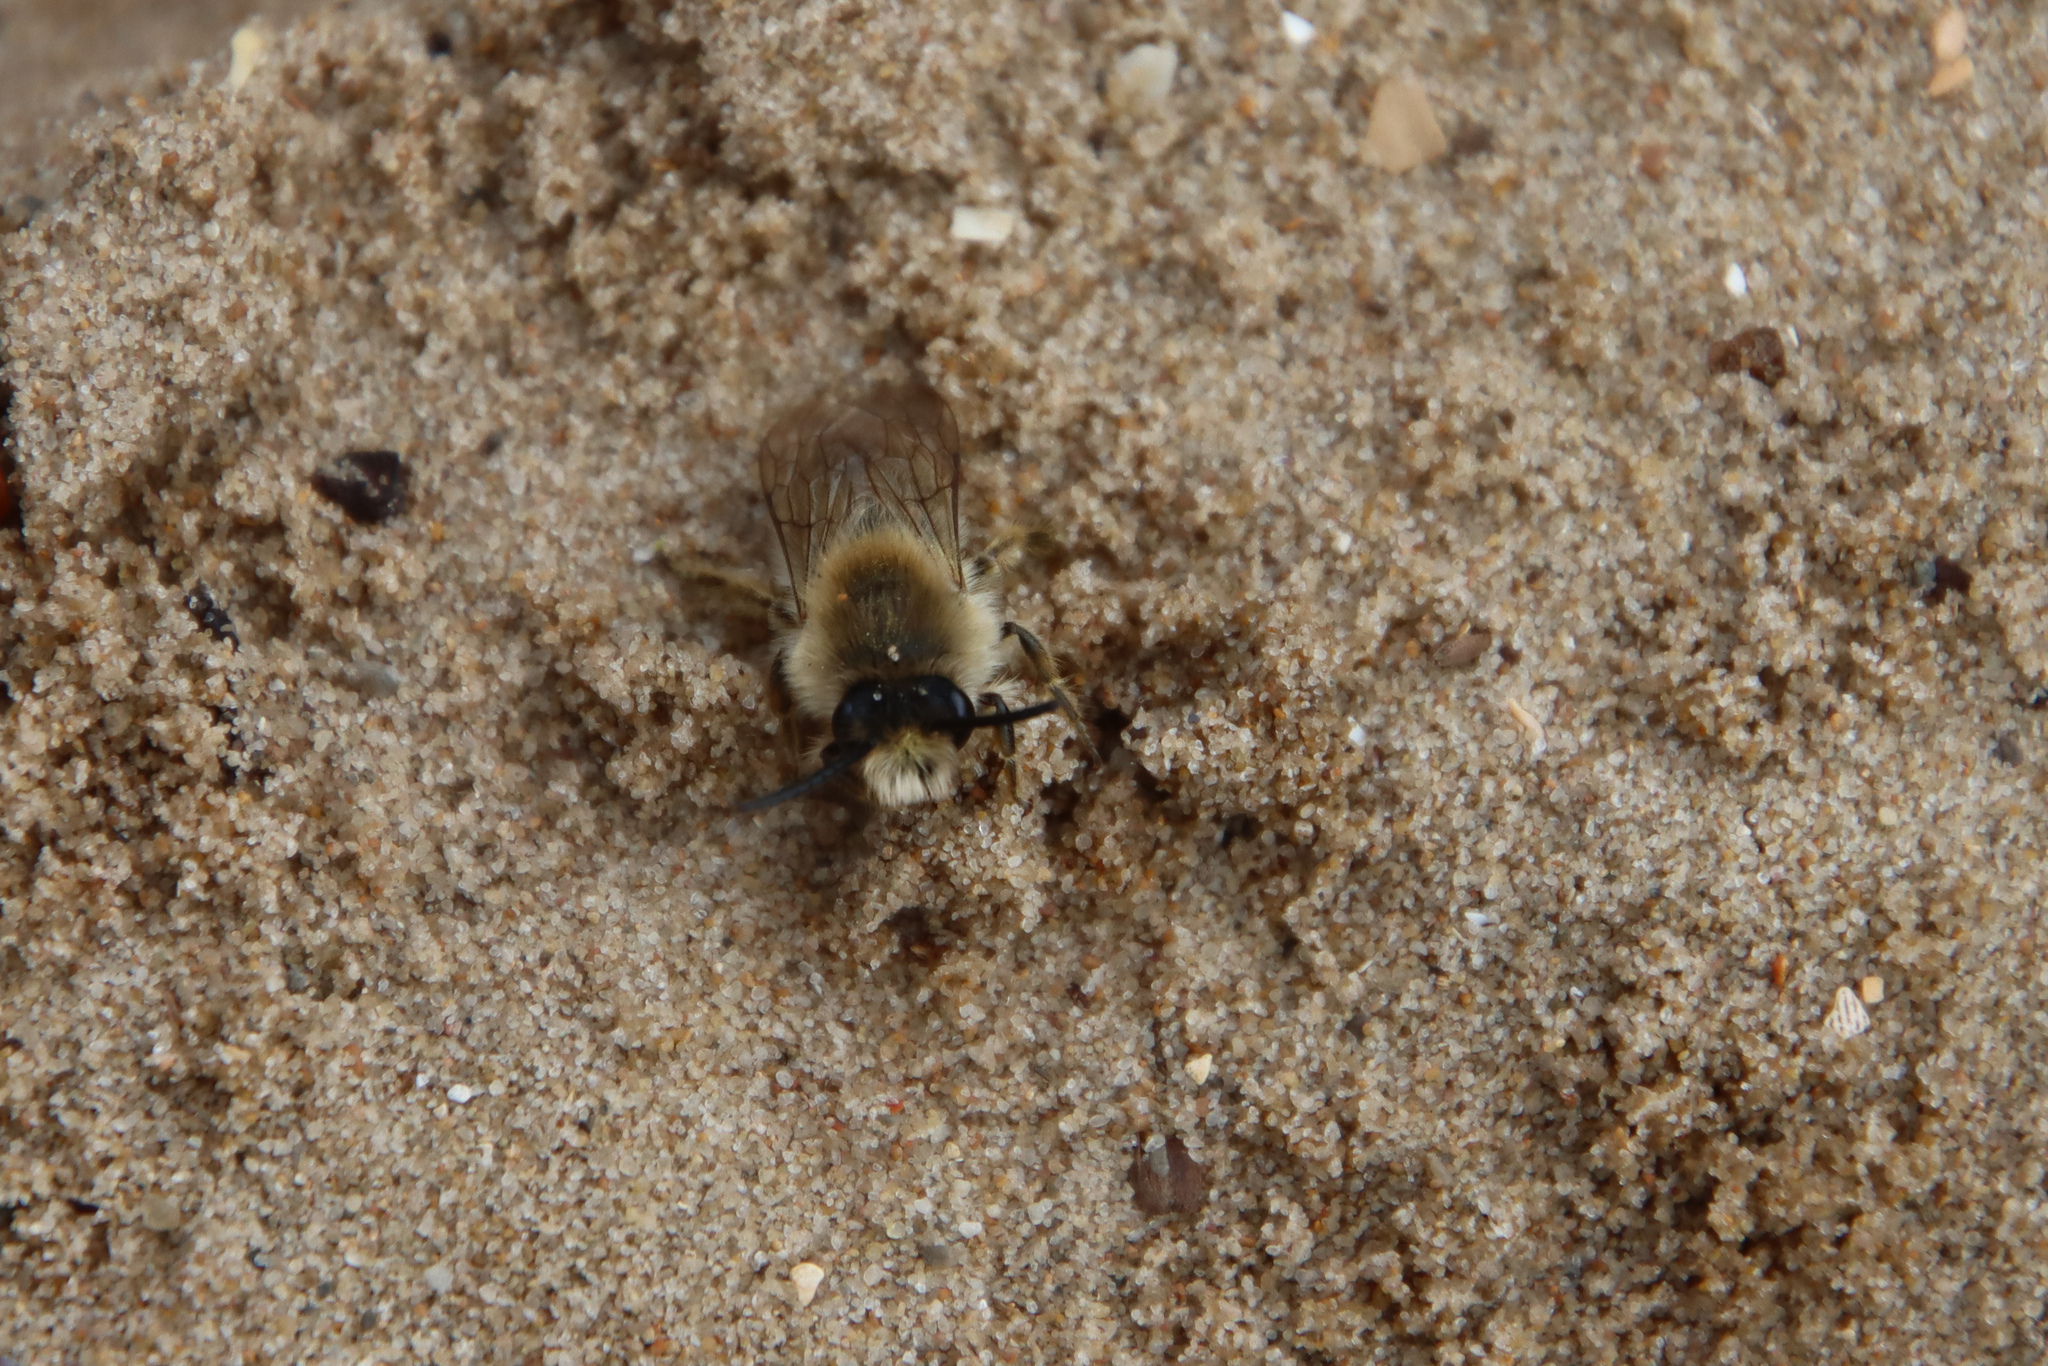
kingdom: Animalia
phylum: Arthropoda
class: Insecta
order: Hymenoptera
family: Colletidae
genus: Colletes
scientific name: Colletes cunicularius
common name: Early colletes
